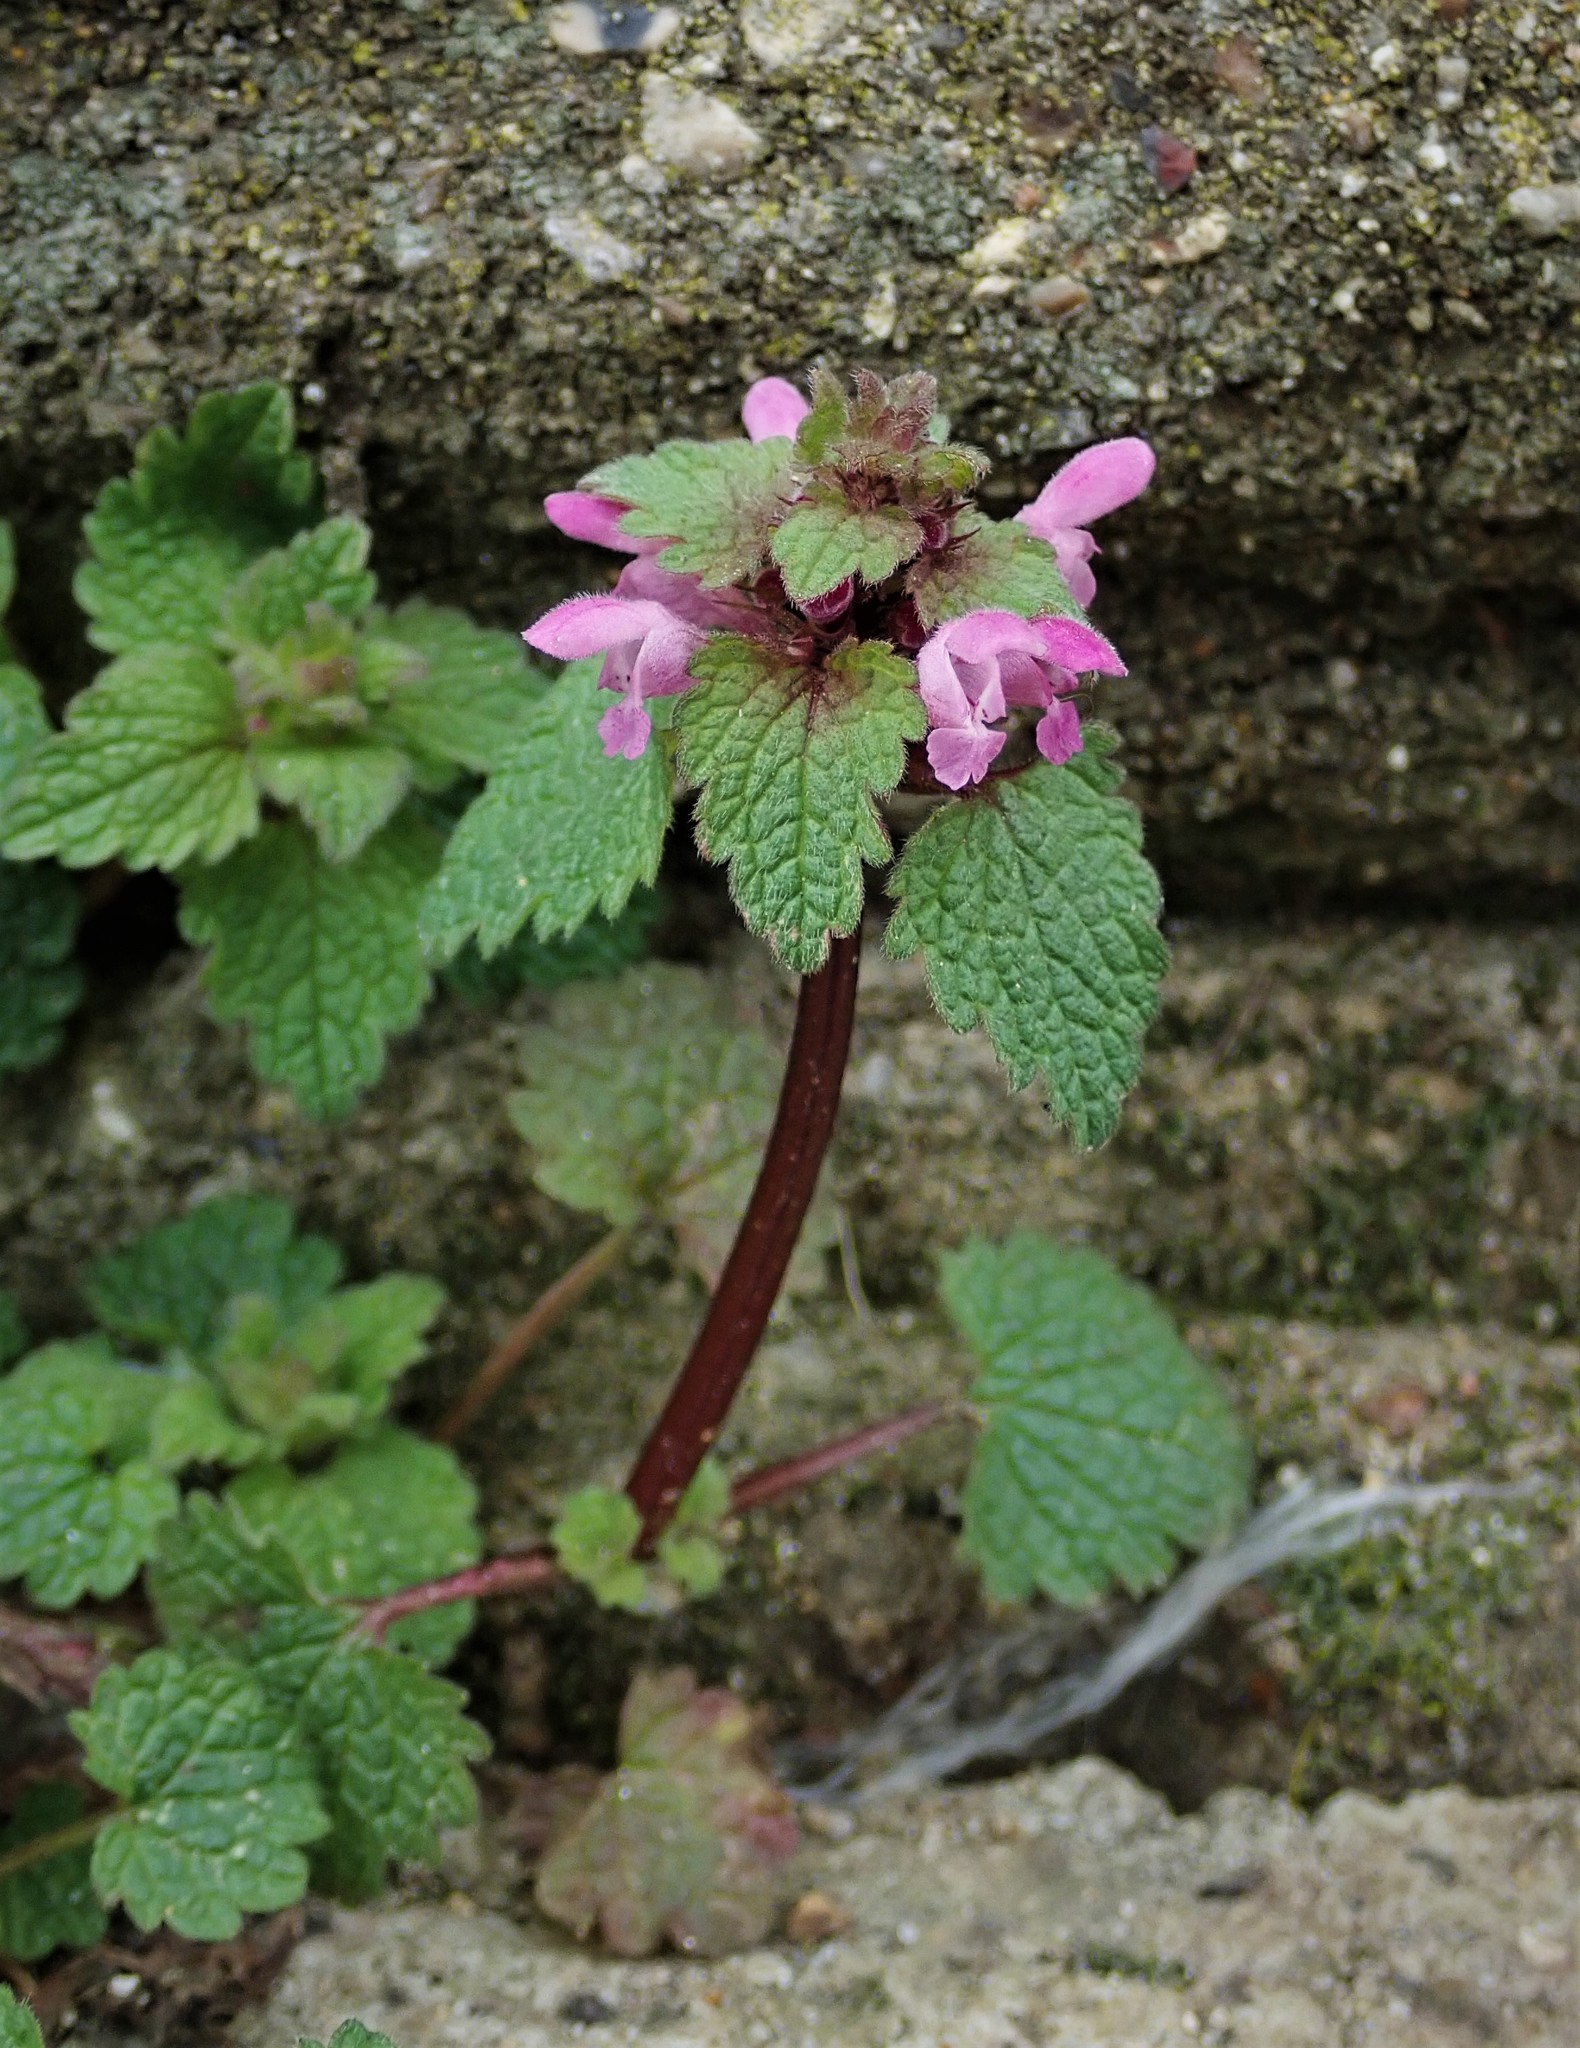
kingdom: Plantae
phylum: Tracheophyta
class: Magnoliopsida
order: Lamiales
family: Lamiaceae
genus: Lamium
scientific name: Lamium purpureum
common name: Red dead-nettle
